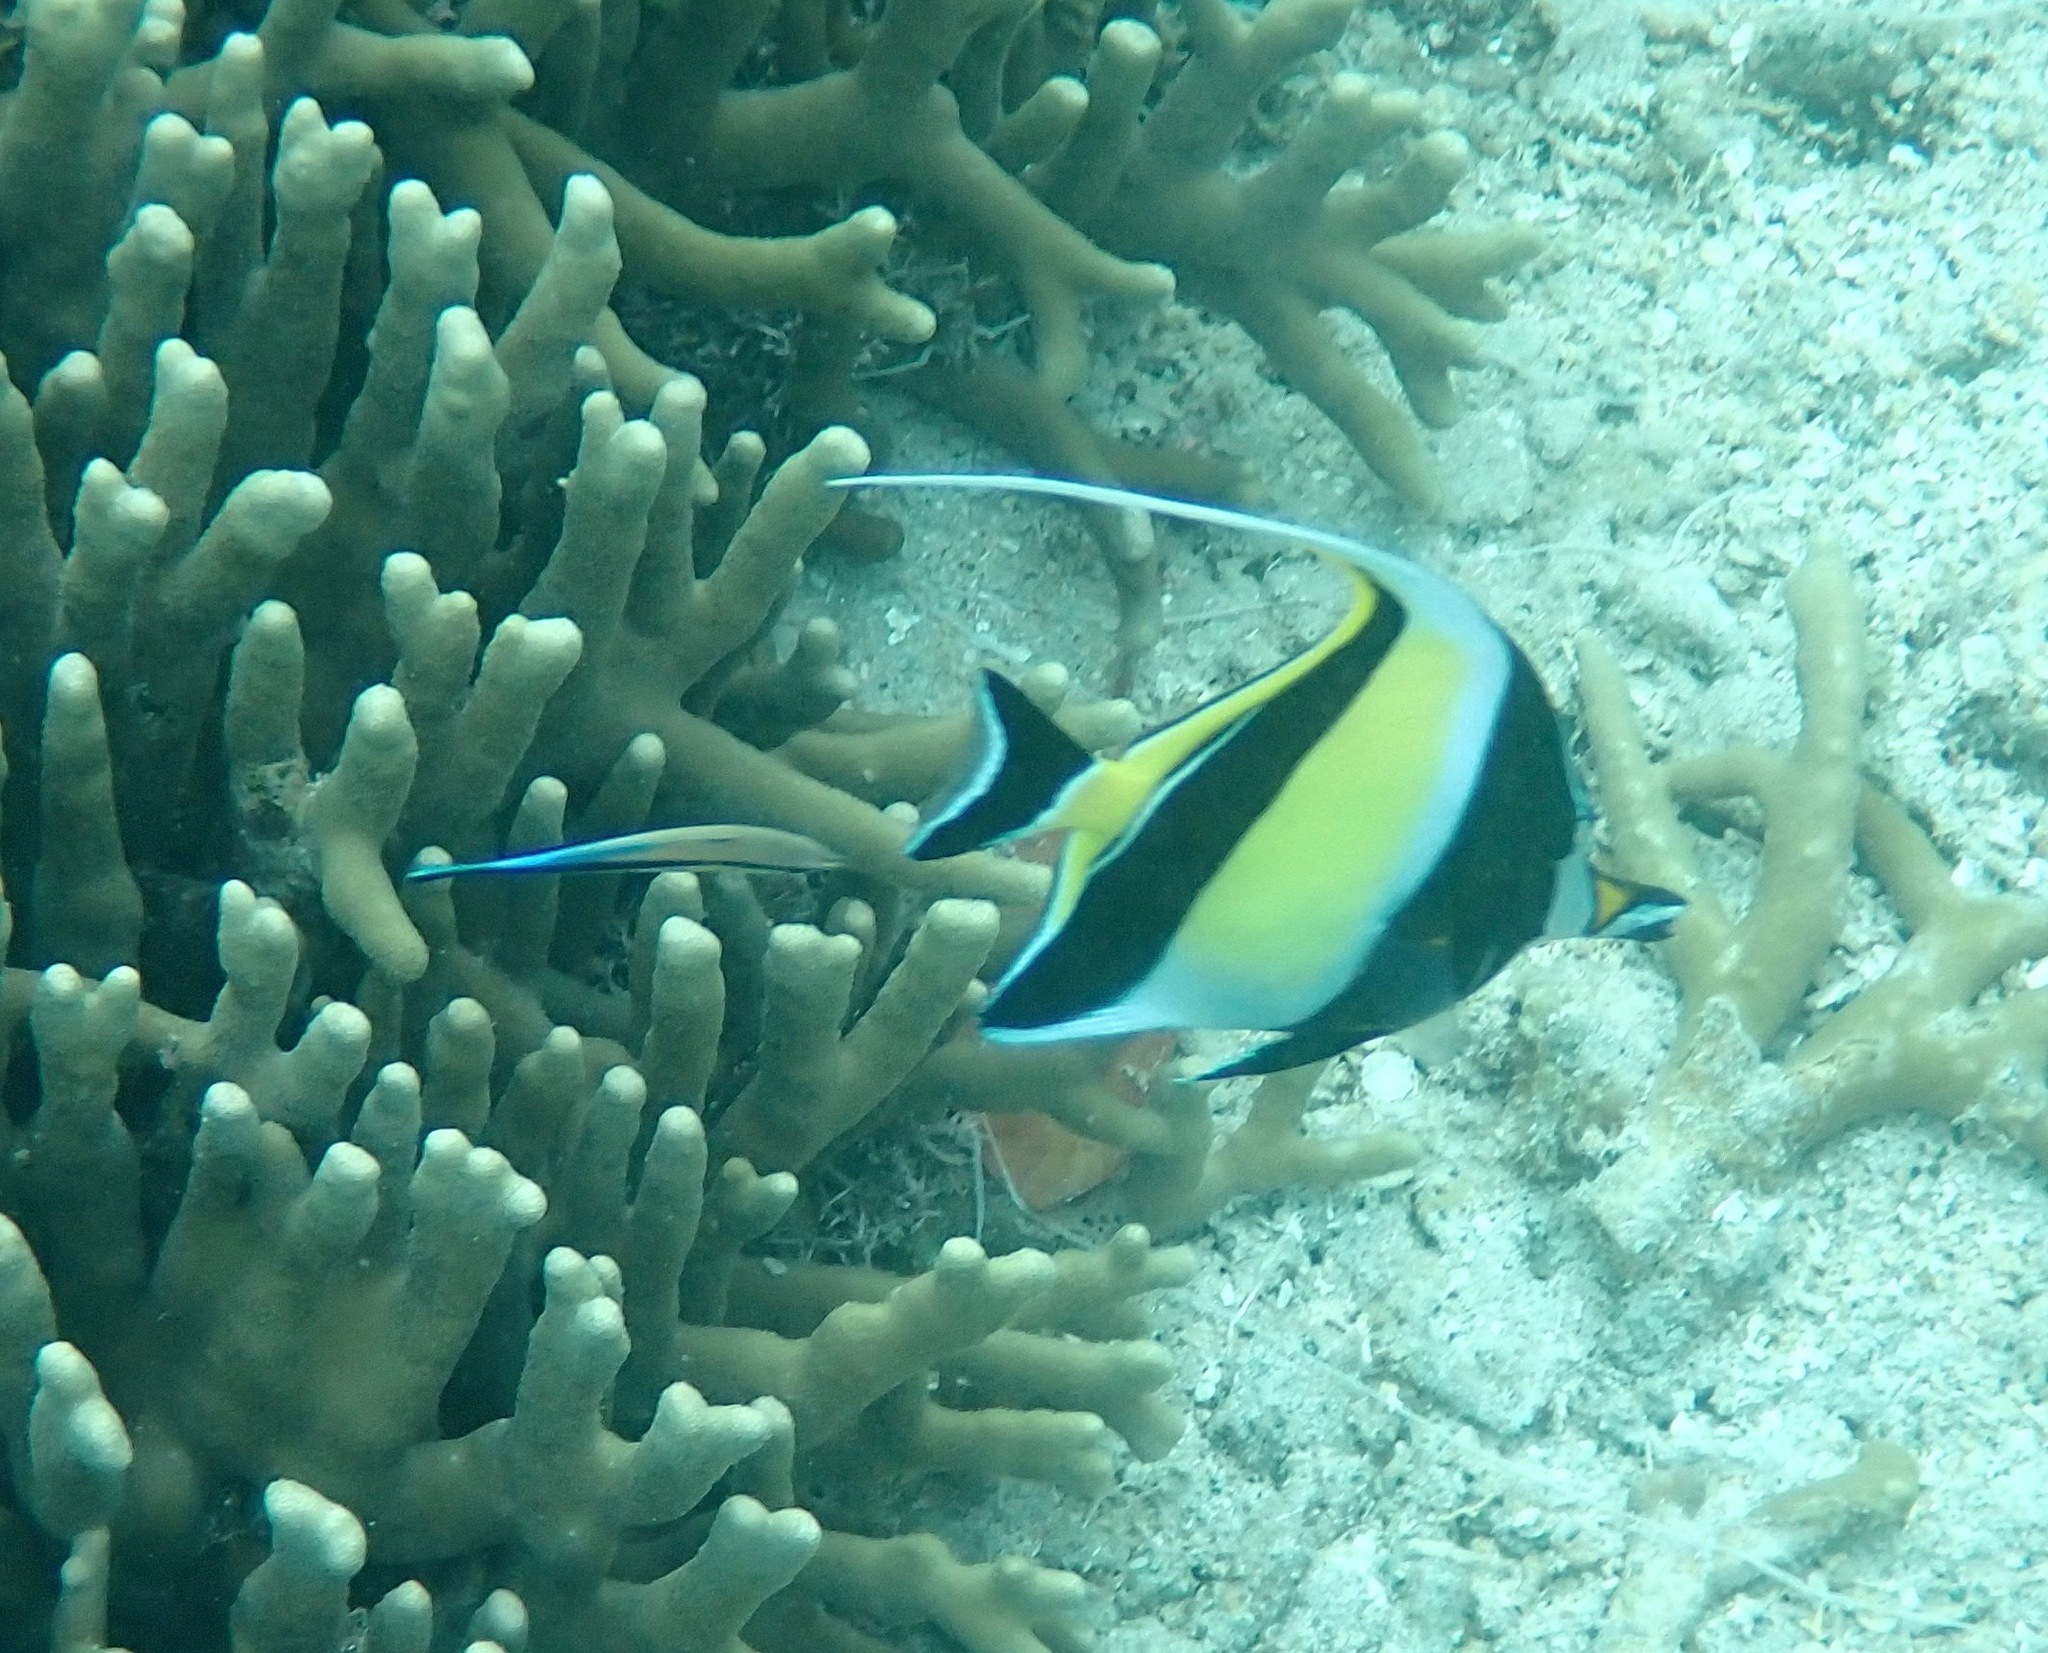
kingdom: Animalia
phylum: Chordata
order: Perciformes
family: Zanclidae
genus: Zanclus
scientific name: Zanclus cornutus
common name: Moorish idol
